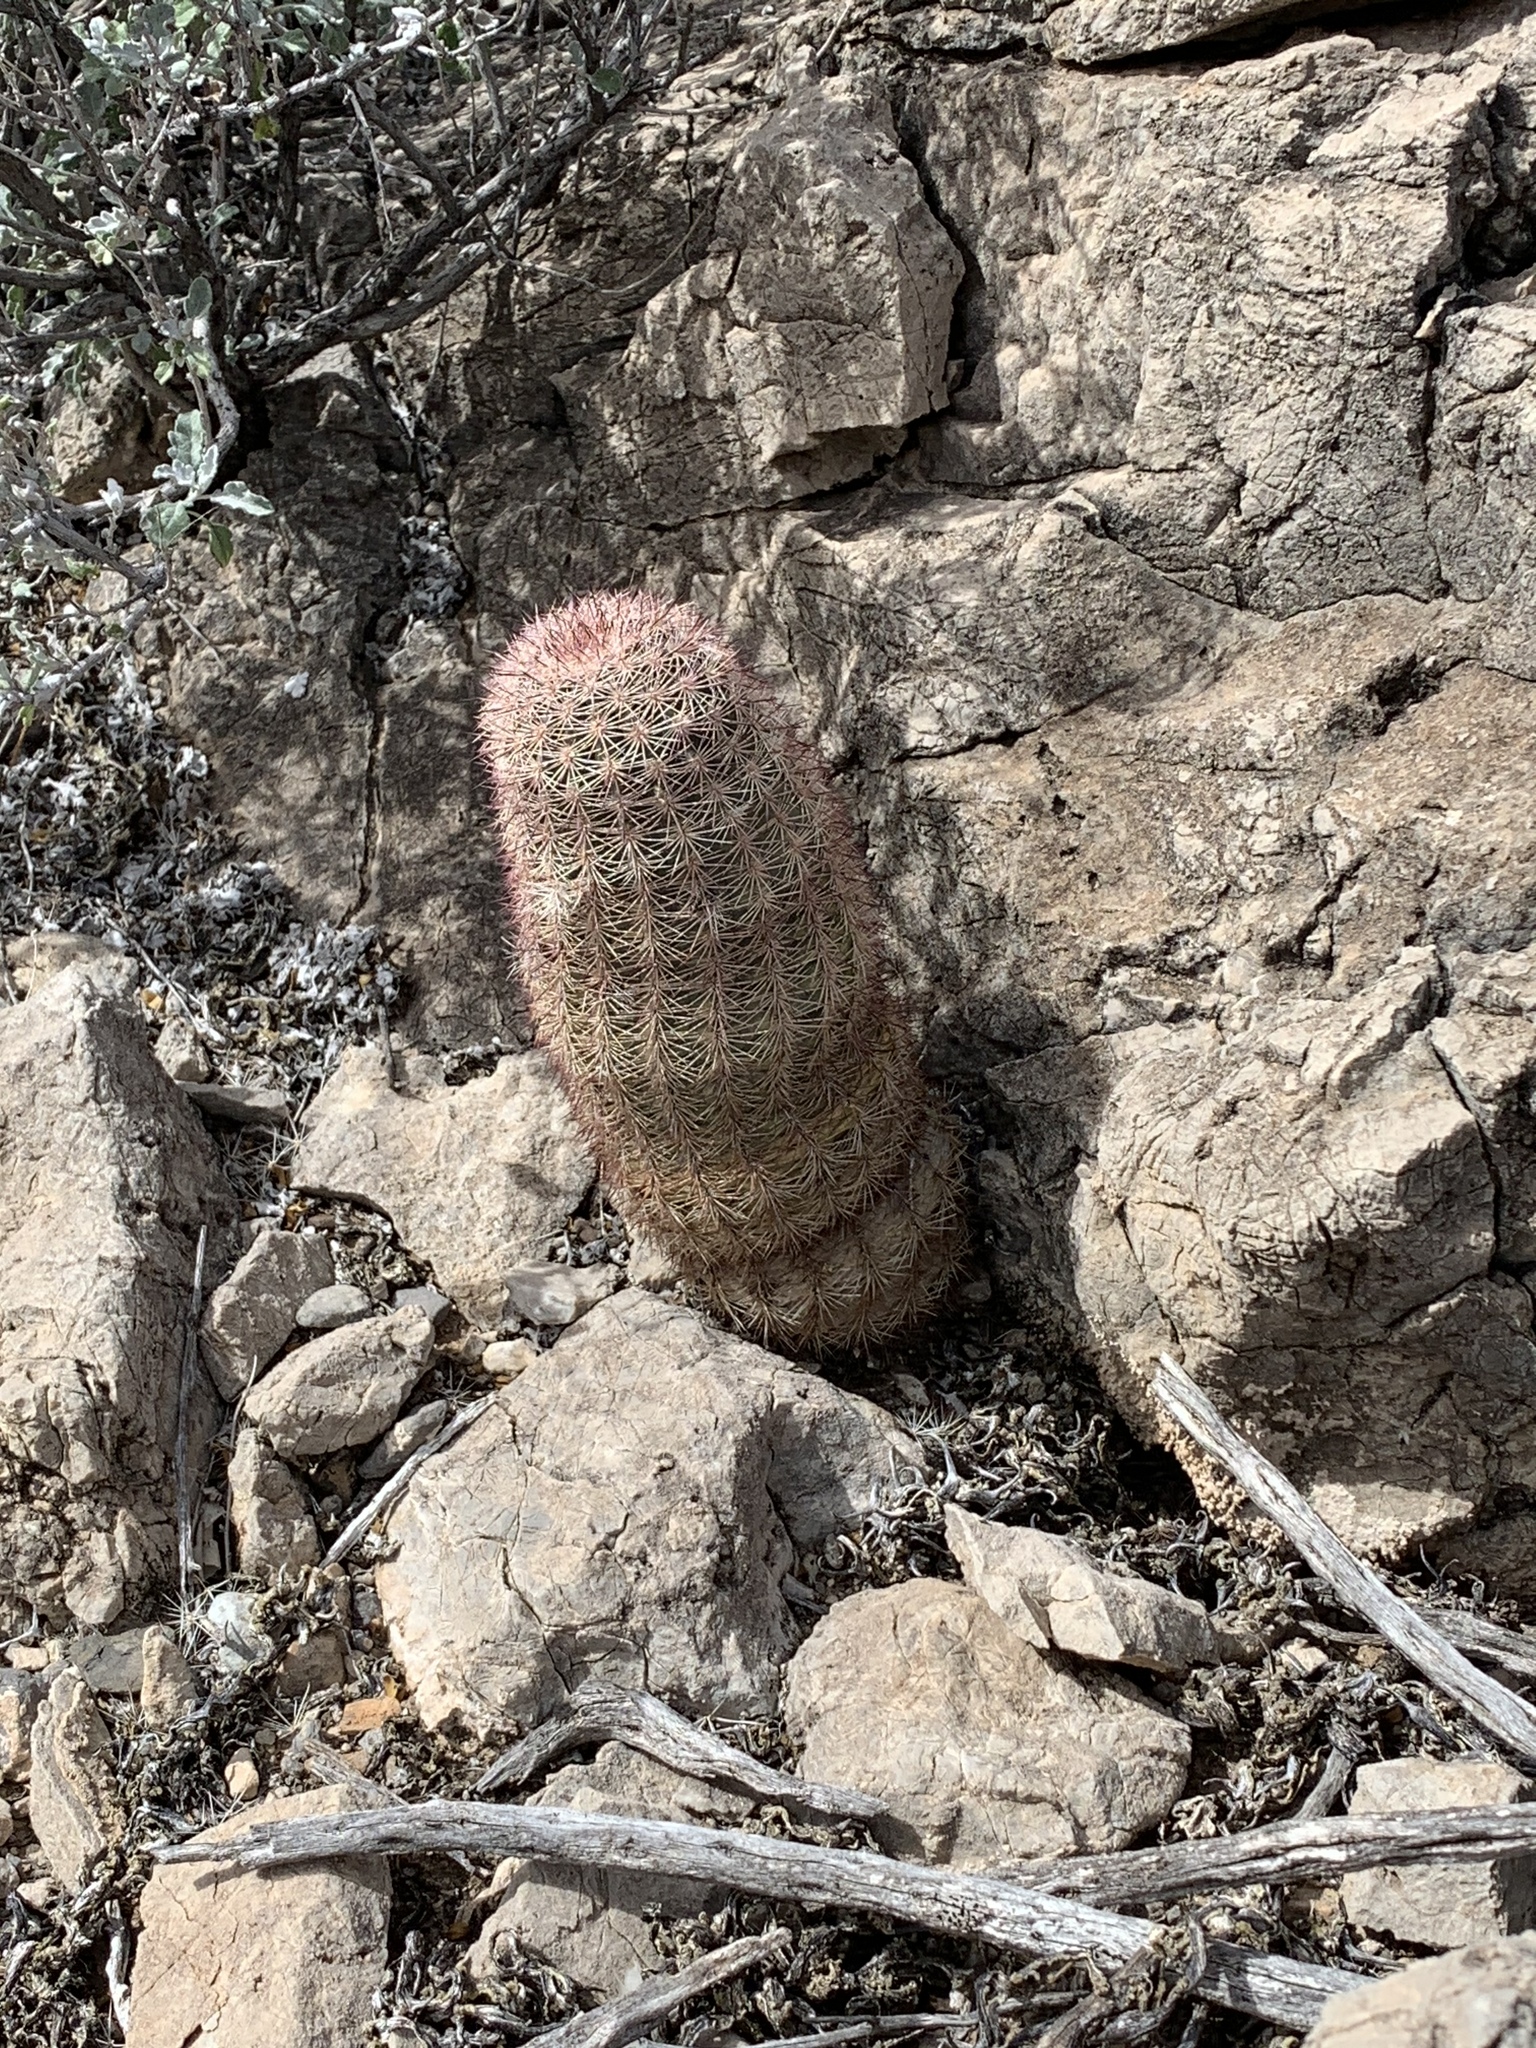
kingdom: Plantae
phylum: Tracheophyta
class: Magnoliopsida
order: Caryophyllales
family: Cactaceae
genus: Echinocereus
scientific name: Echinocereus dasyacanthus
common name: Spiny hedgehog cactus
